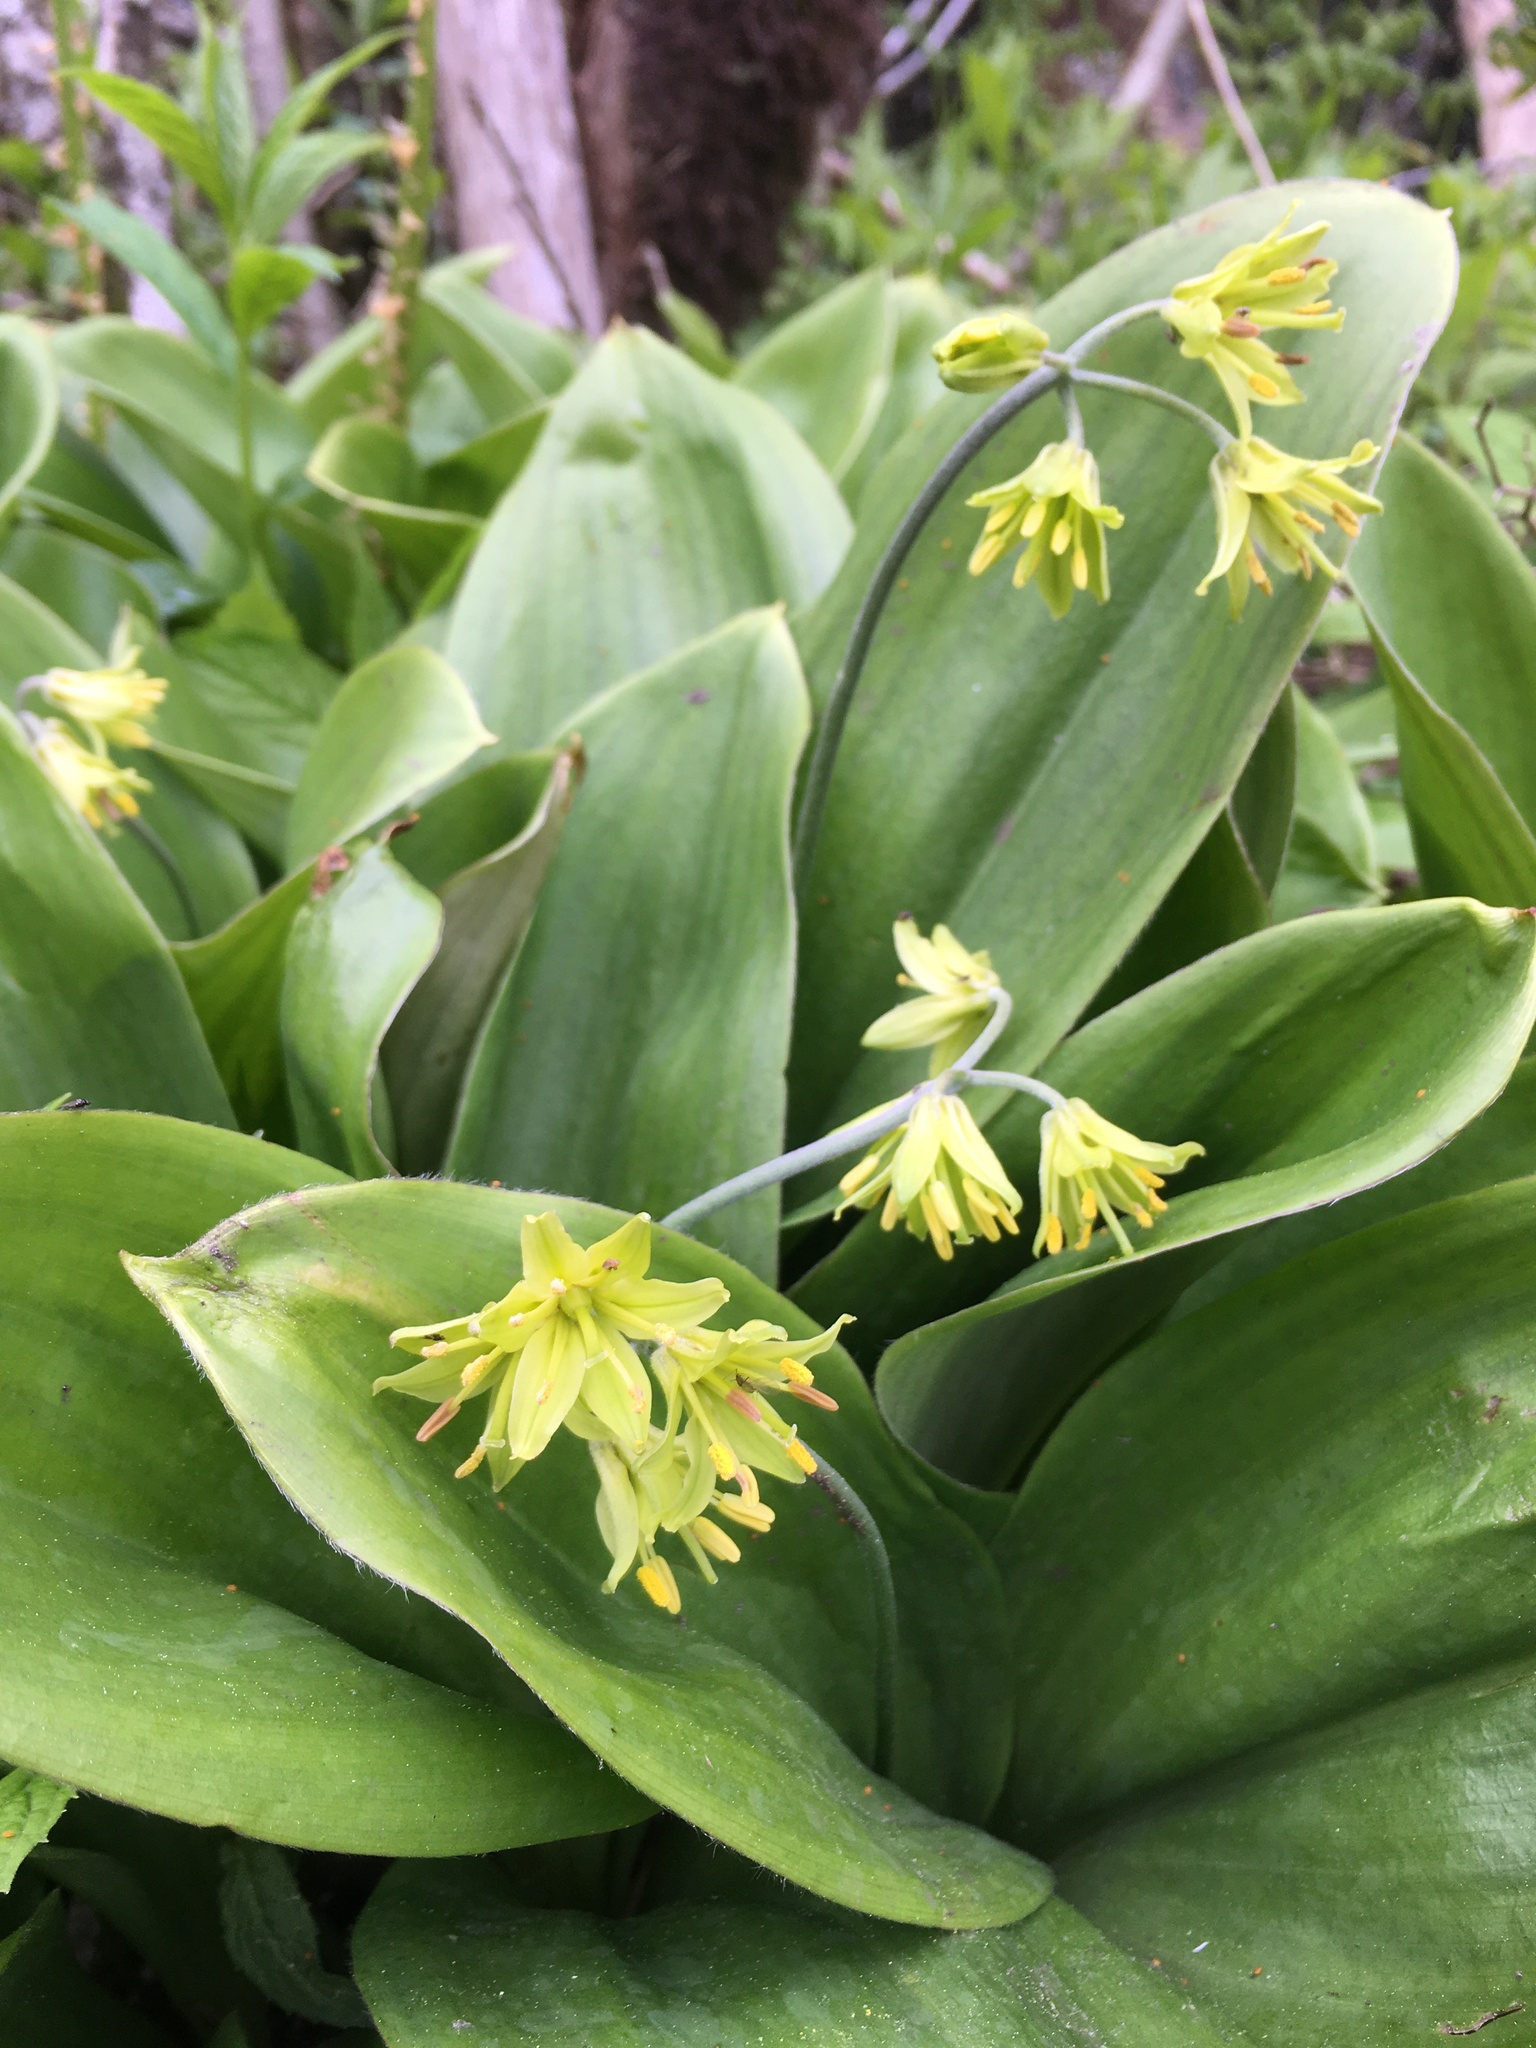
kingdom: Plantae
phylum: Tracheophyta
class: Liliopsida
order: Liliales
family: Liliaceae
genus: Clintonia
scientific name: Clintonia borealis
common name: Yellow clintonia
